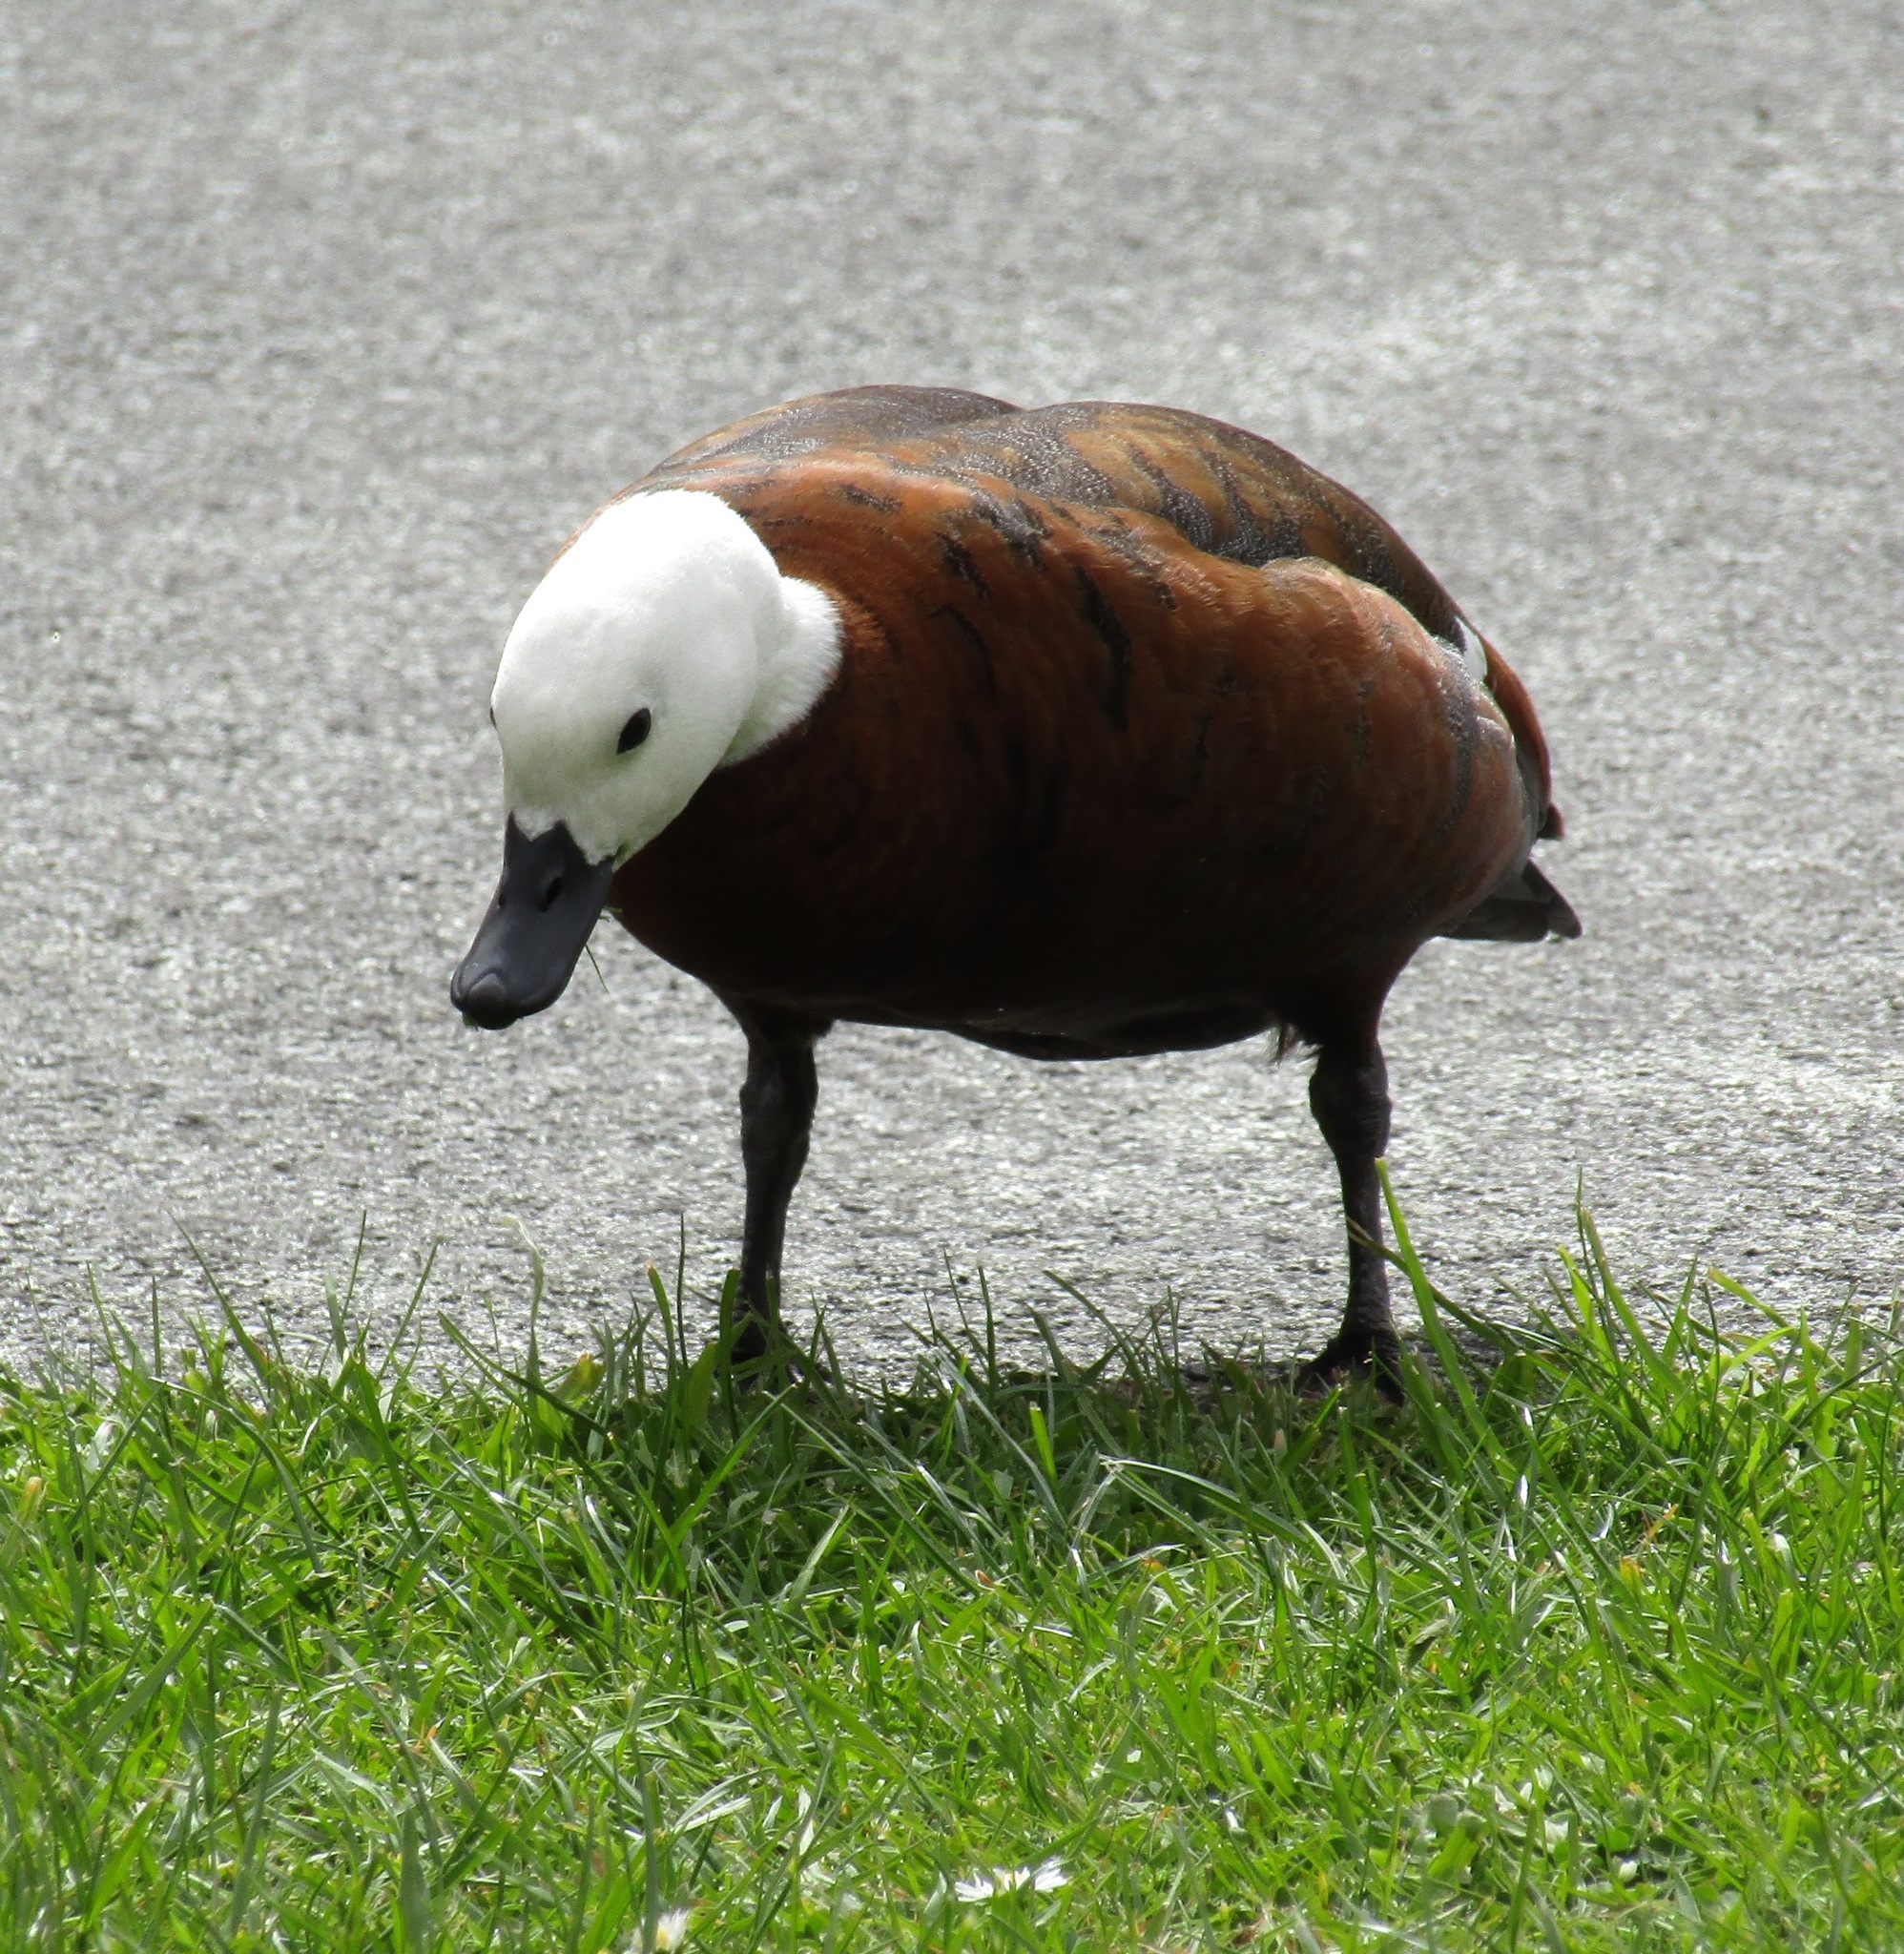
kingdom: Animalia
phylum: Chordata
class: Aves
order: Anseriformes
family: Anatidae
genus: Tadorna
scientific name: Tadorna variegata
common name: Paradise shelduck
